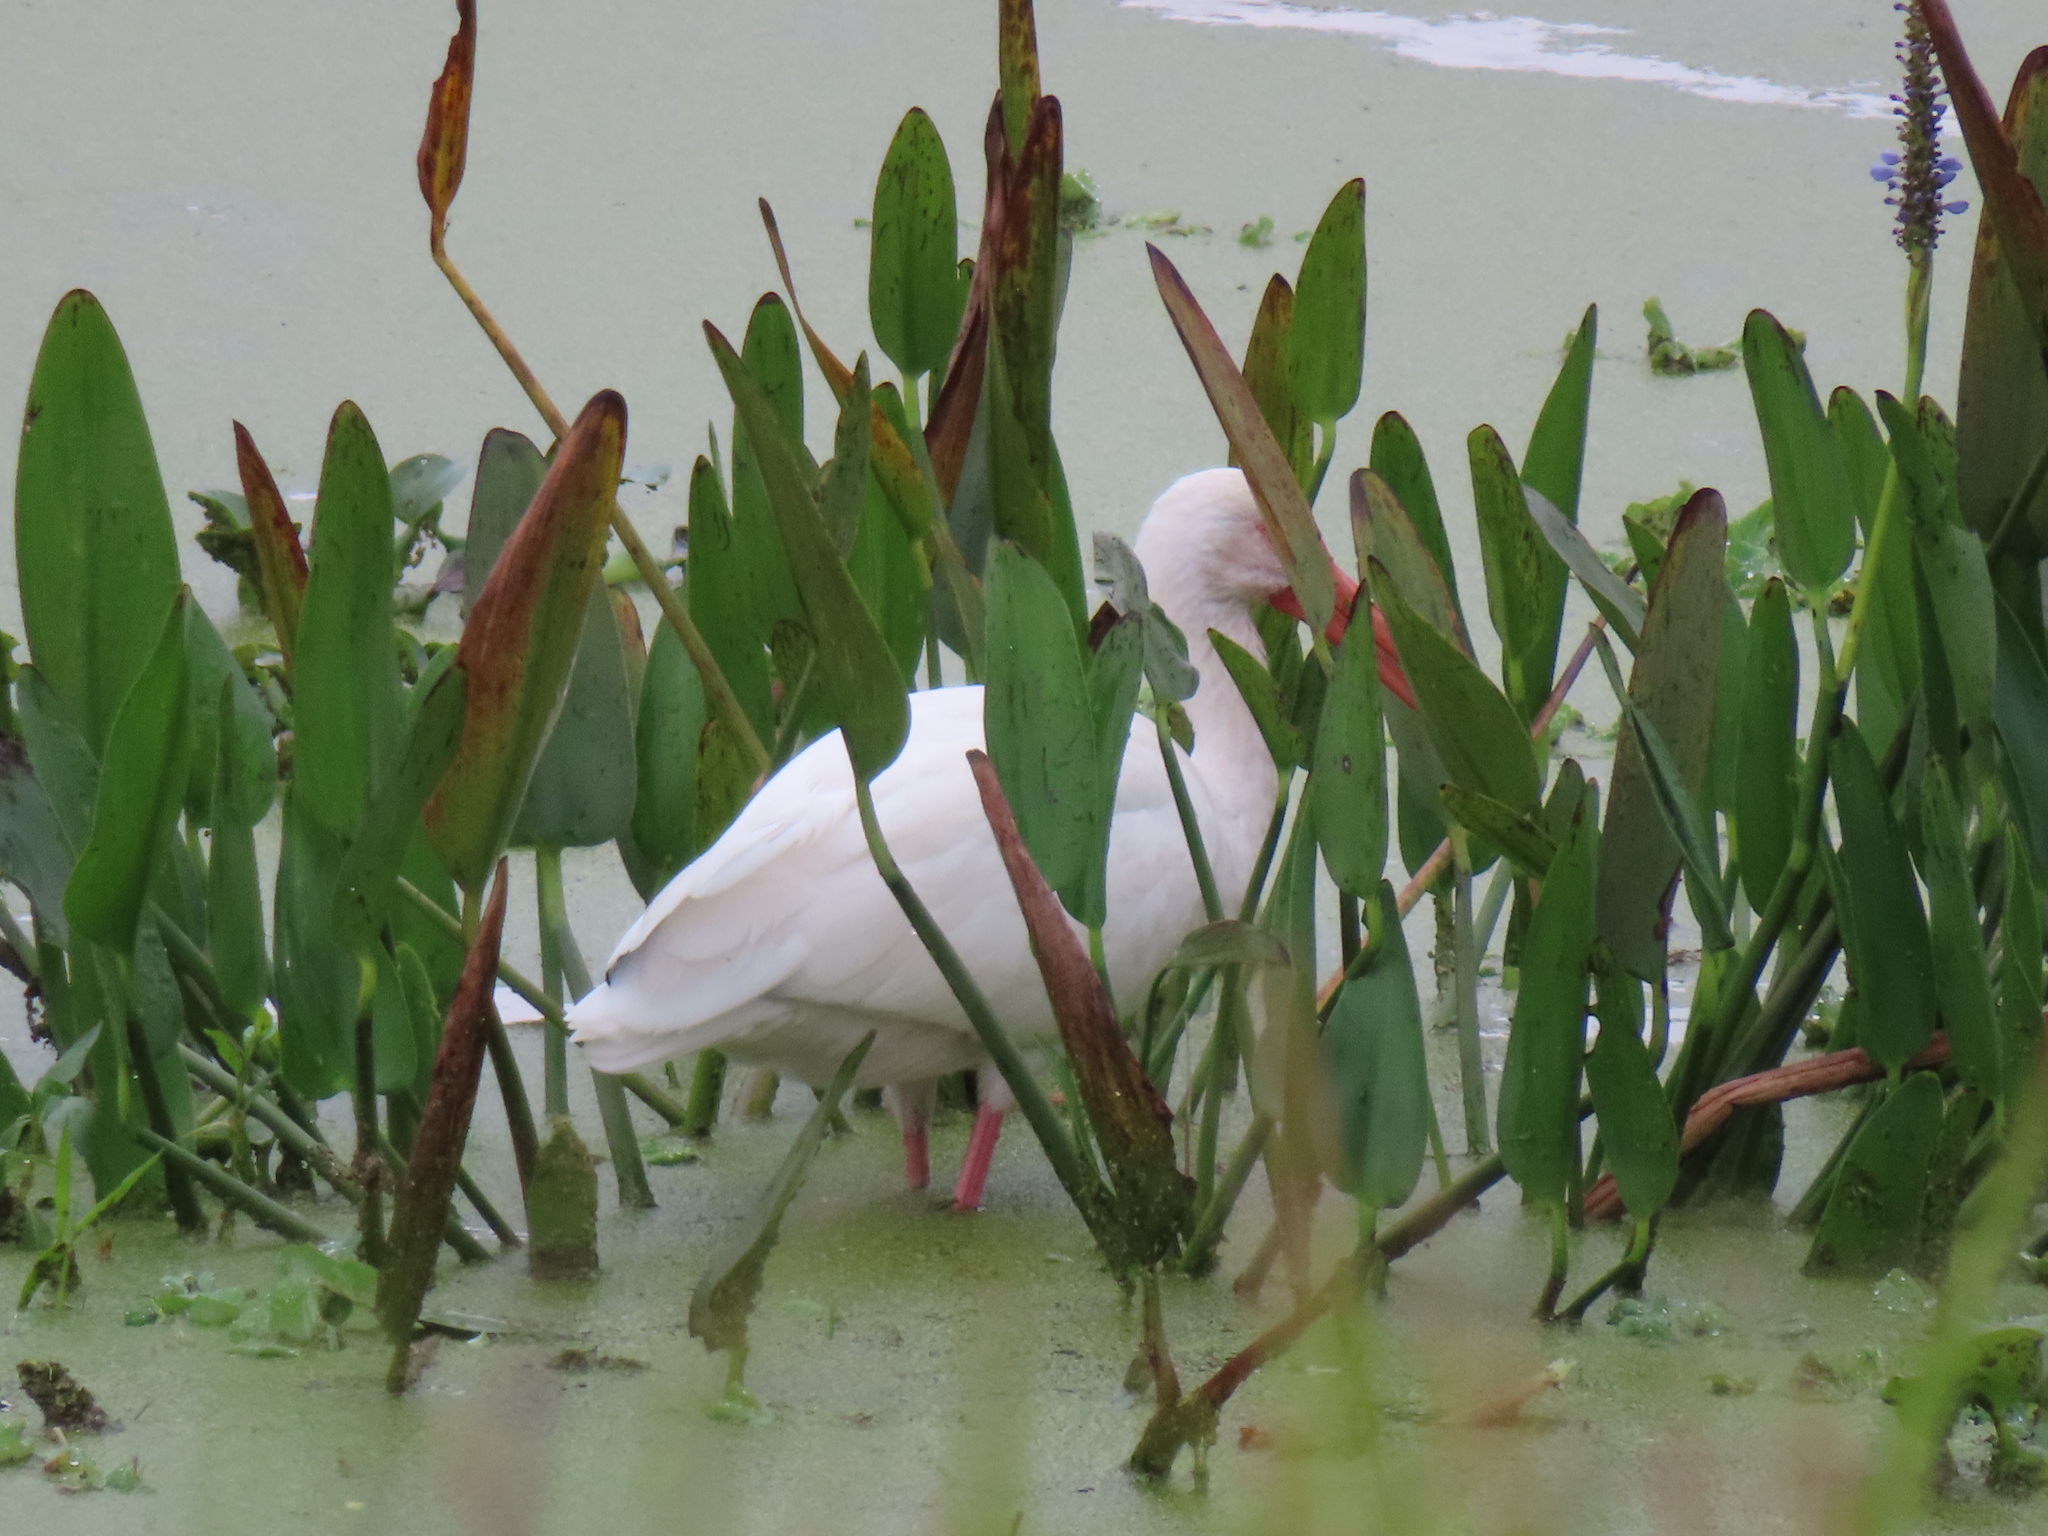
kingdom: Animalia
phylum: Chordata
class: Aves
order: Pelecaniformes
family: Threskiornithidae
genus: Eudocimus
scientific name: Eudocimus albus
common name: White ibis
